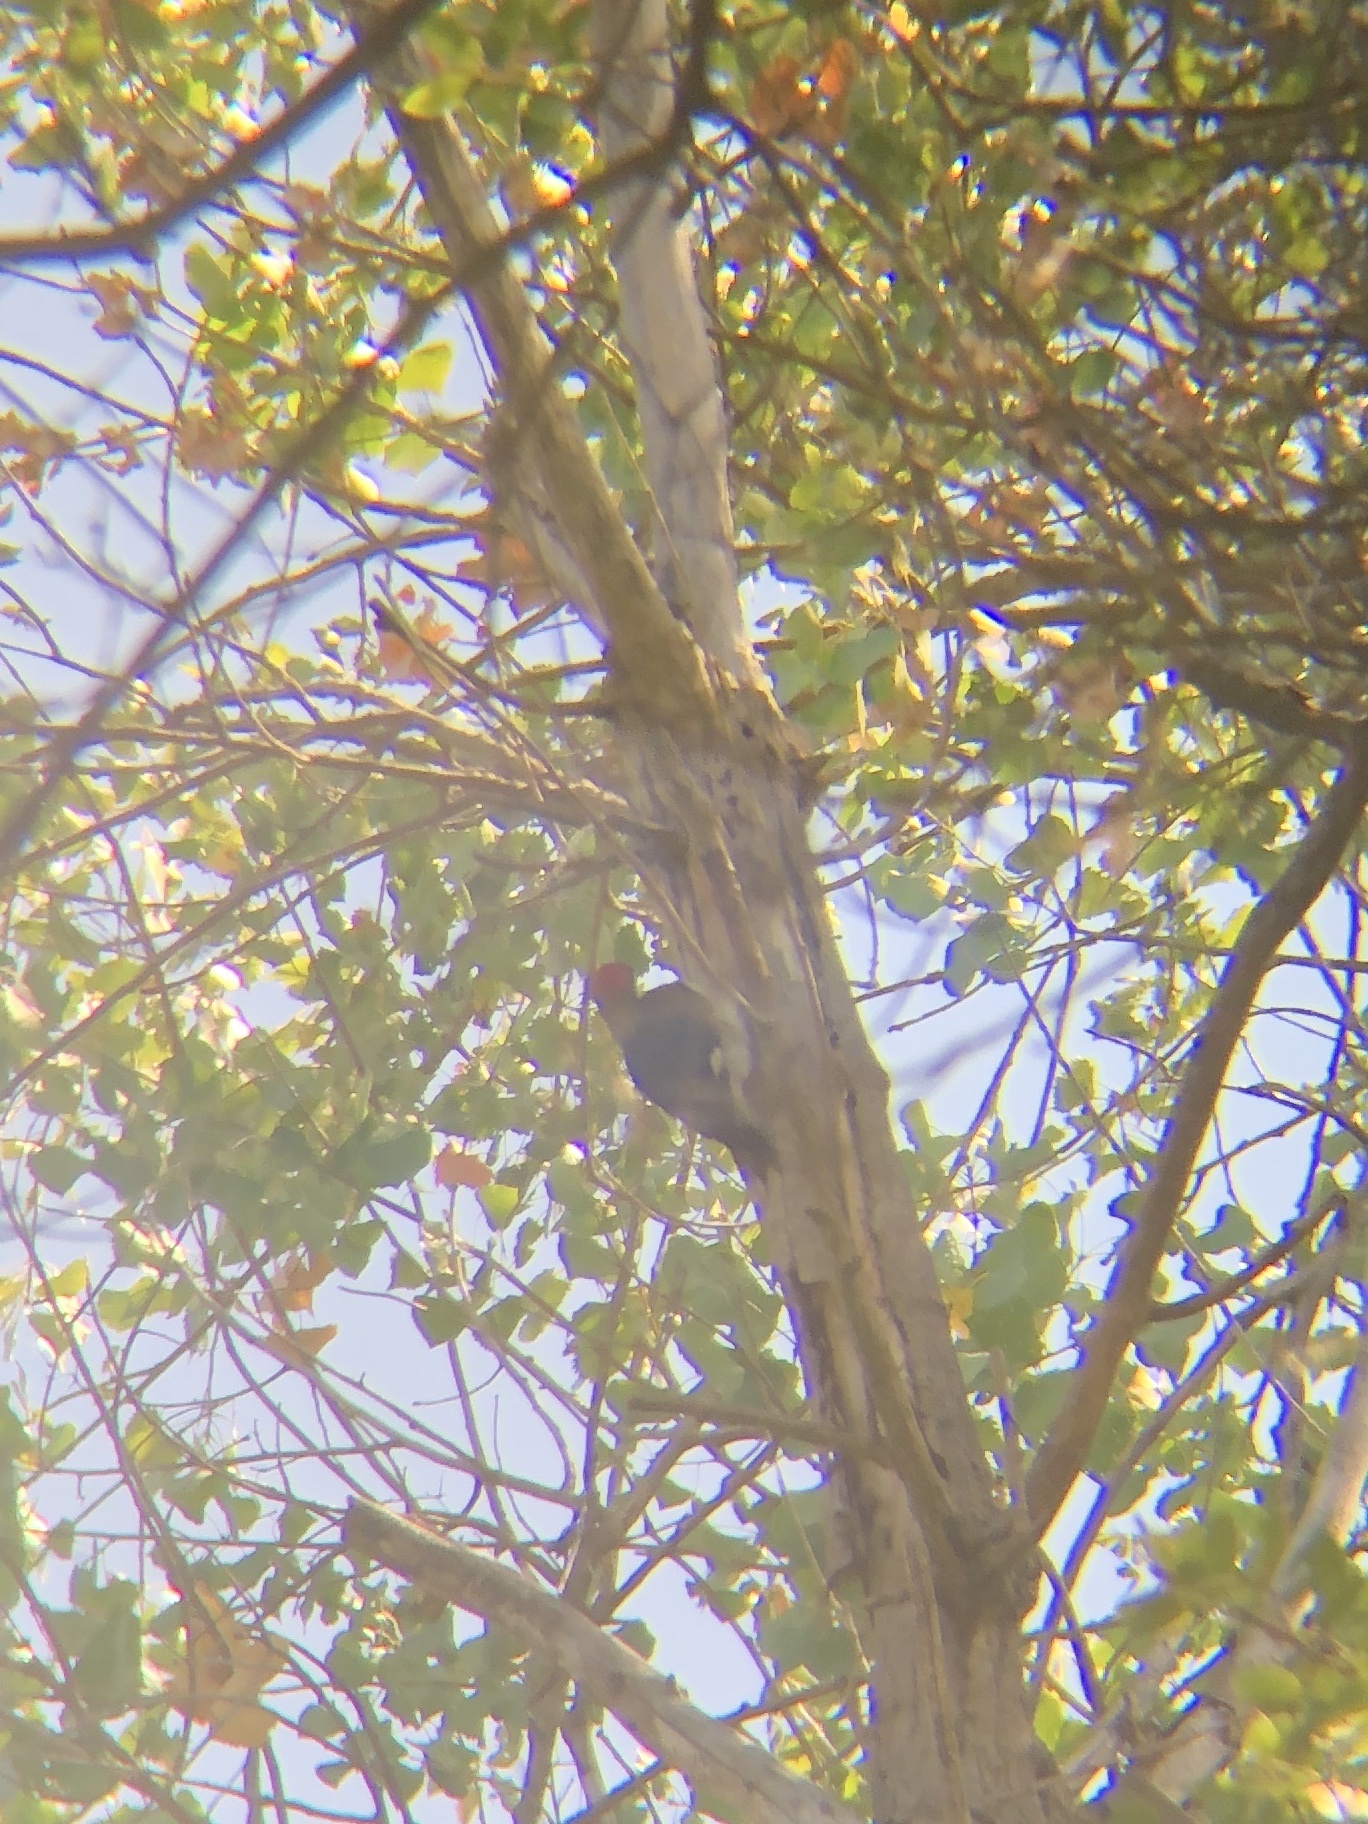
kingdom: Animalia
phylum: Chordata
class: Aves
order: Piciformes
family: Picidae
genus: Melanerpes
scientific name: Melanerpes formicivorus
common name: Acorn woodpecker
